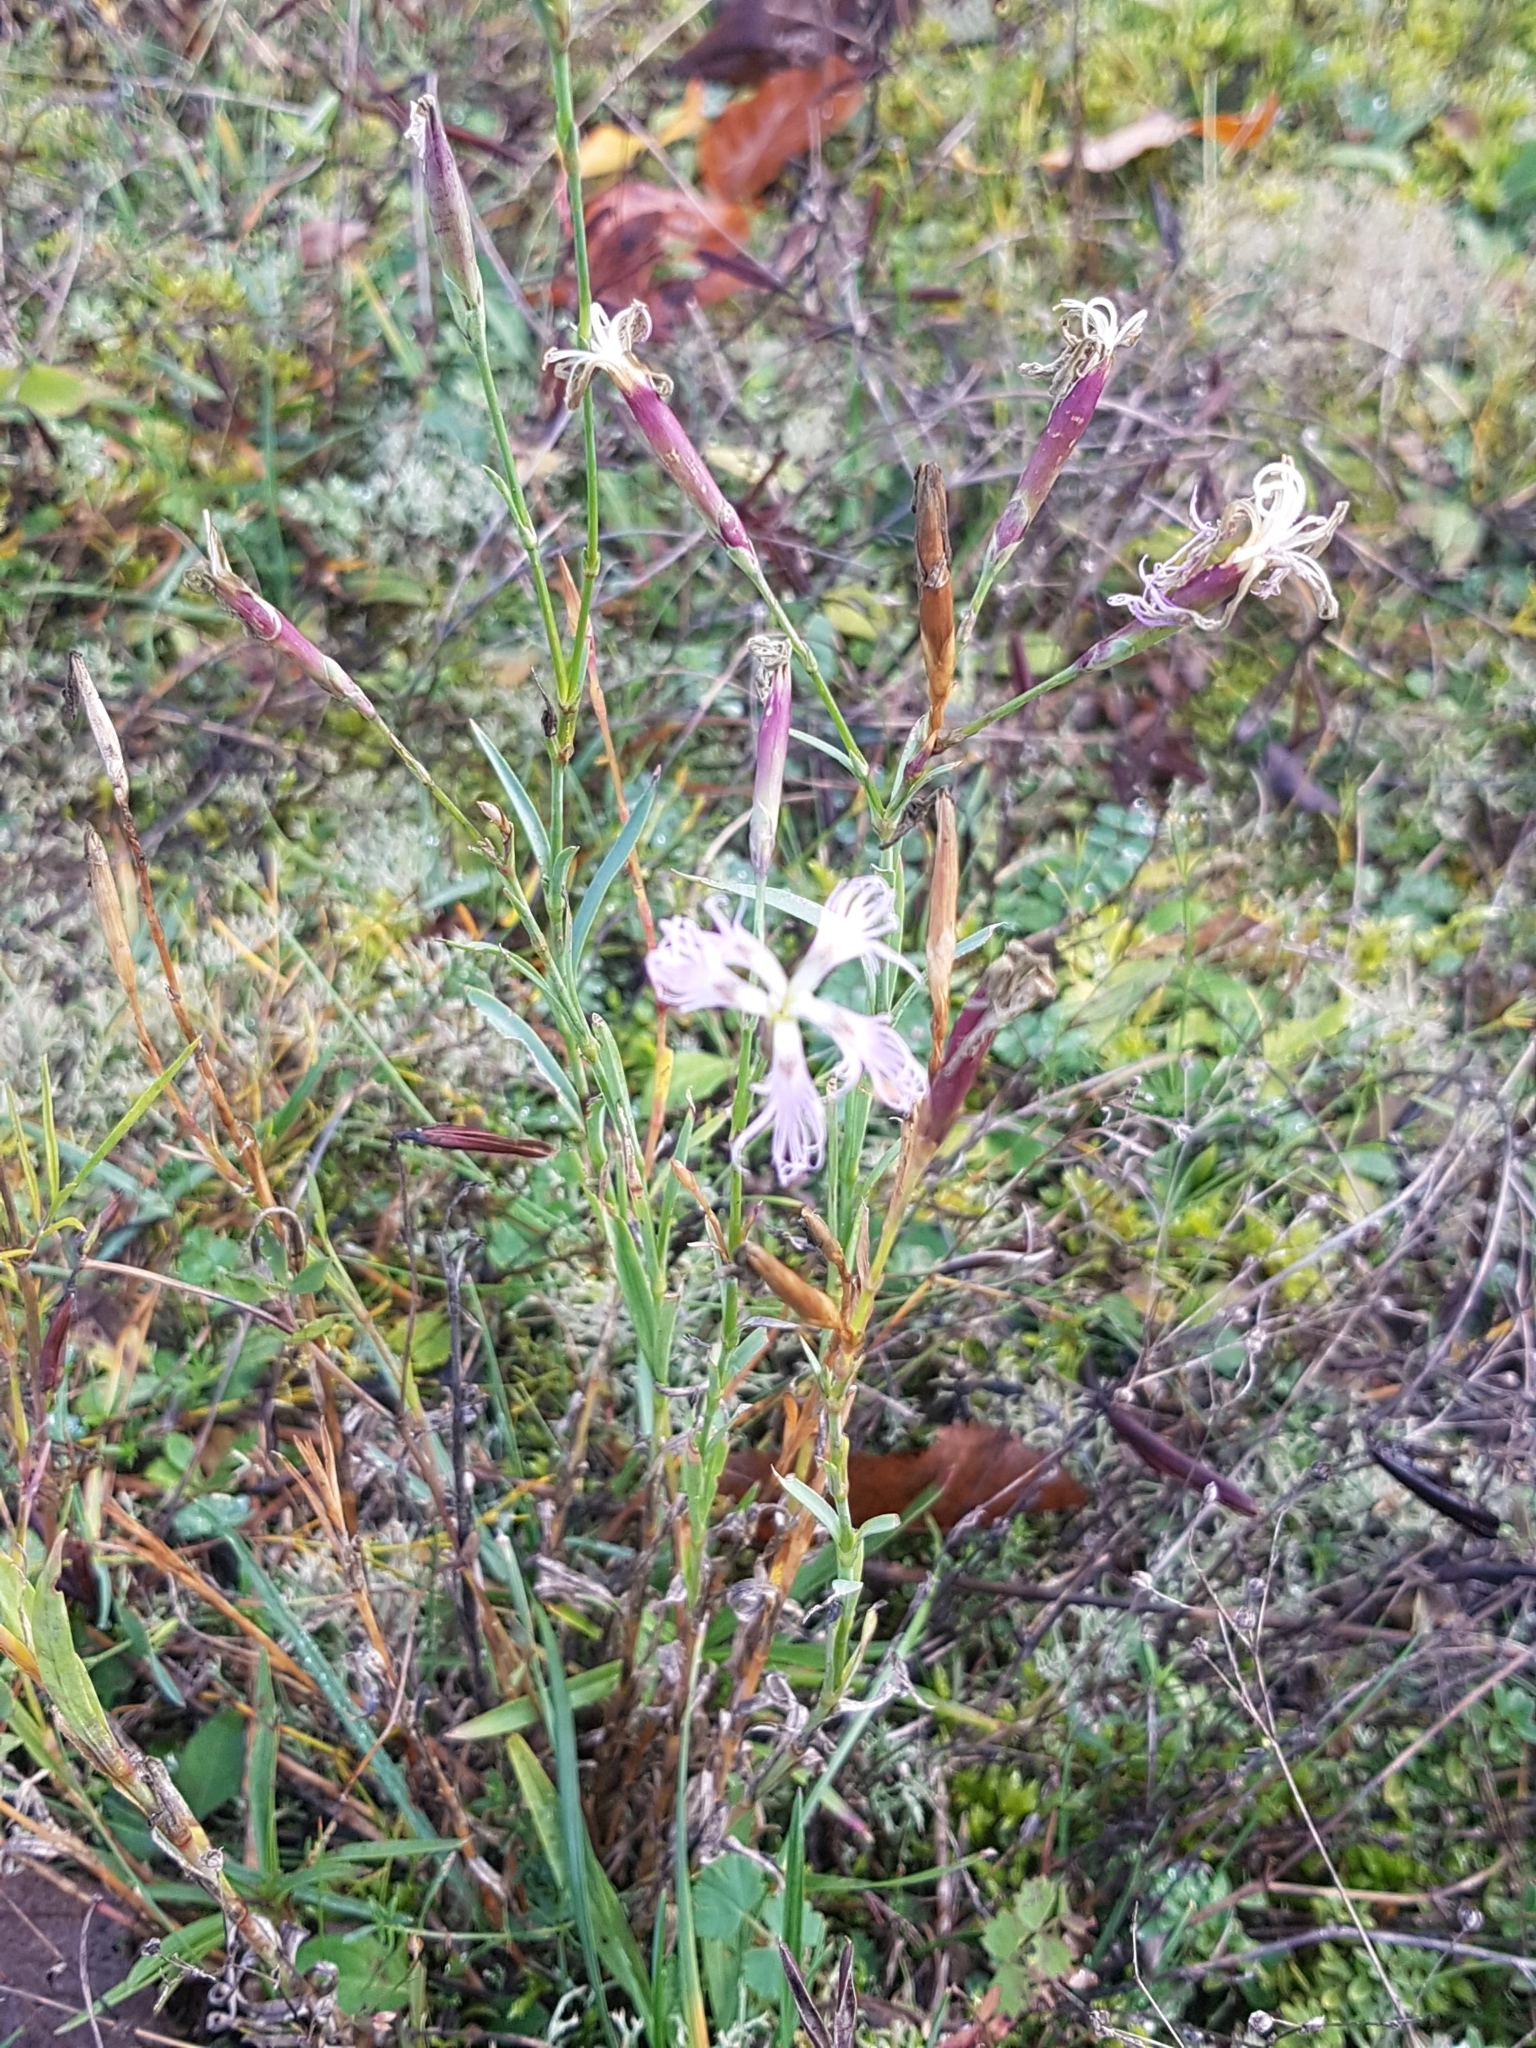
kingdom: Plantae
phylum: Tracheophyta
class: Magnoliopsida
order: Caryophyllales
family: Caryophyllaceae
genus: Dianthus
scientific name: Dianthus superbus
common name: Fringed pink
